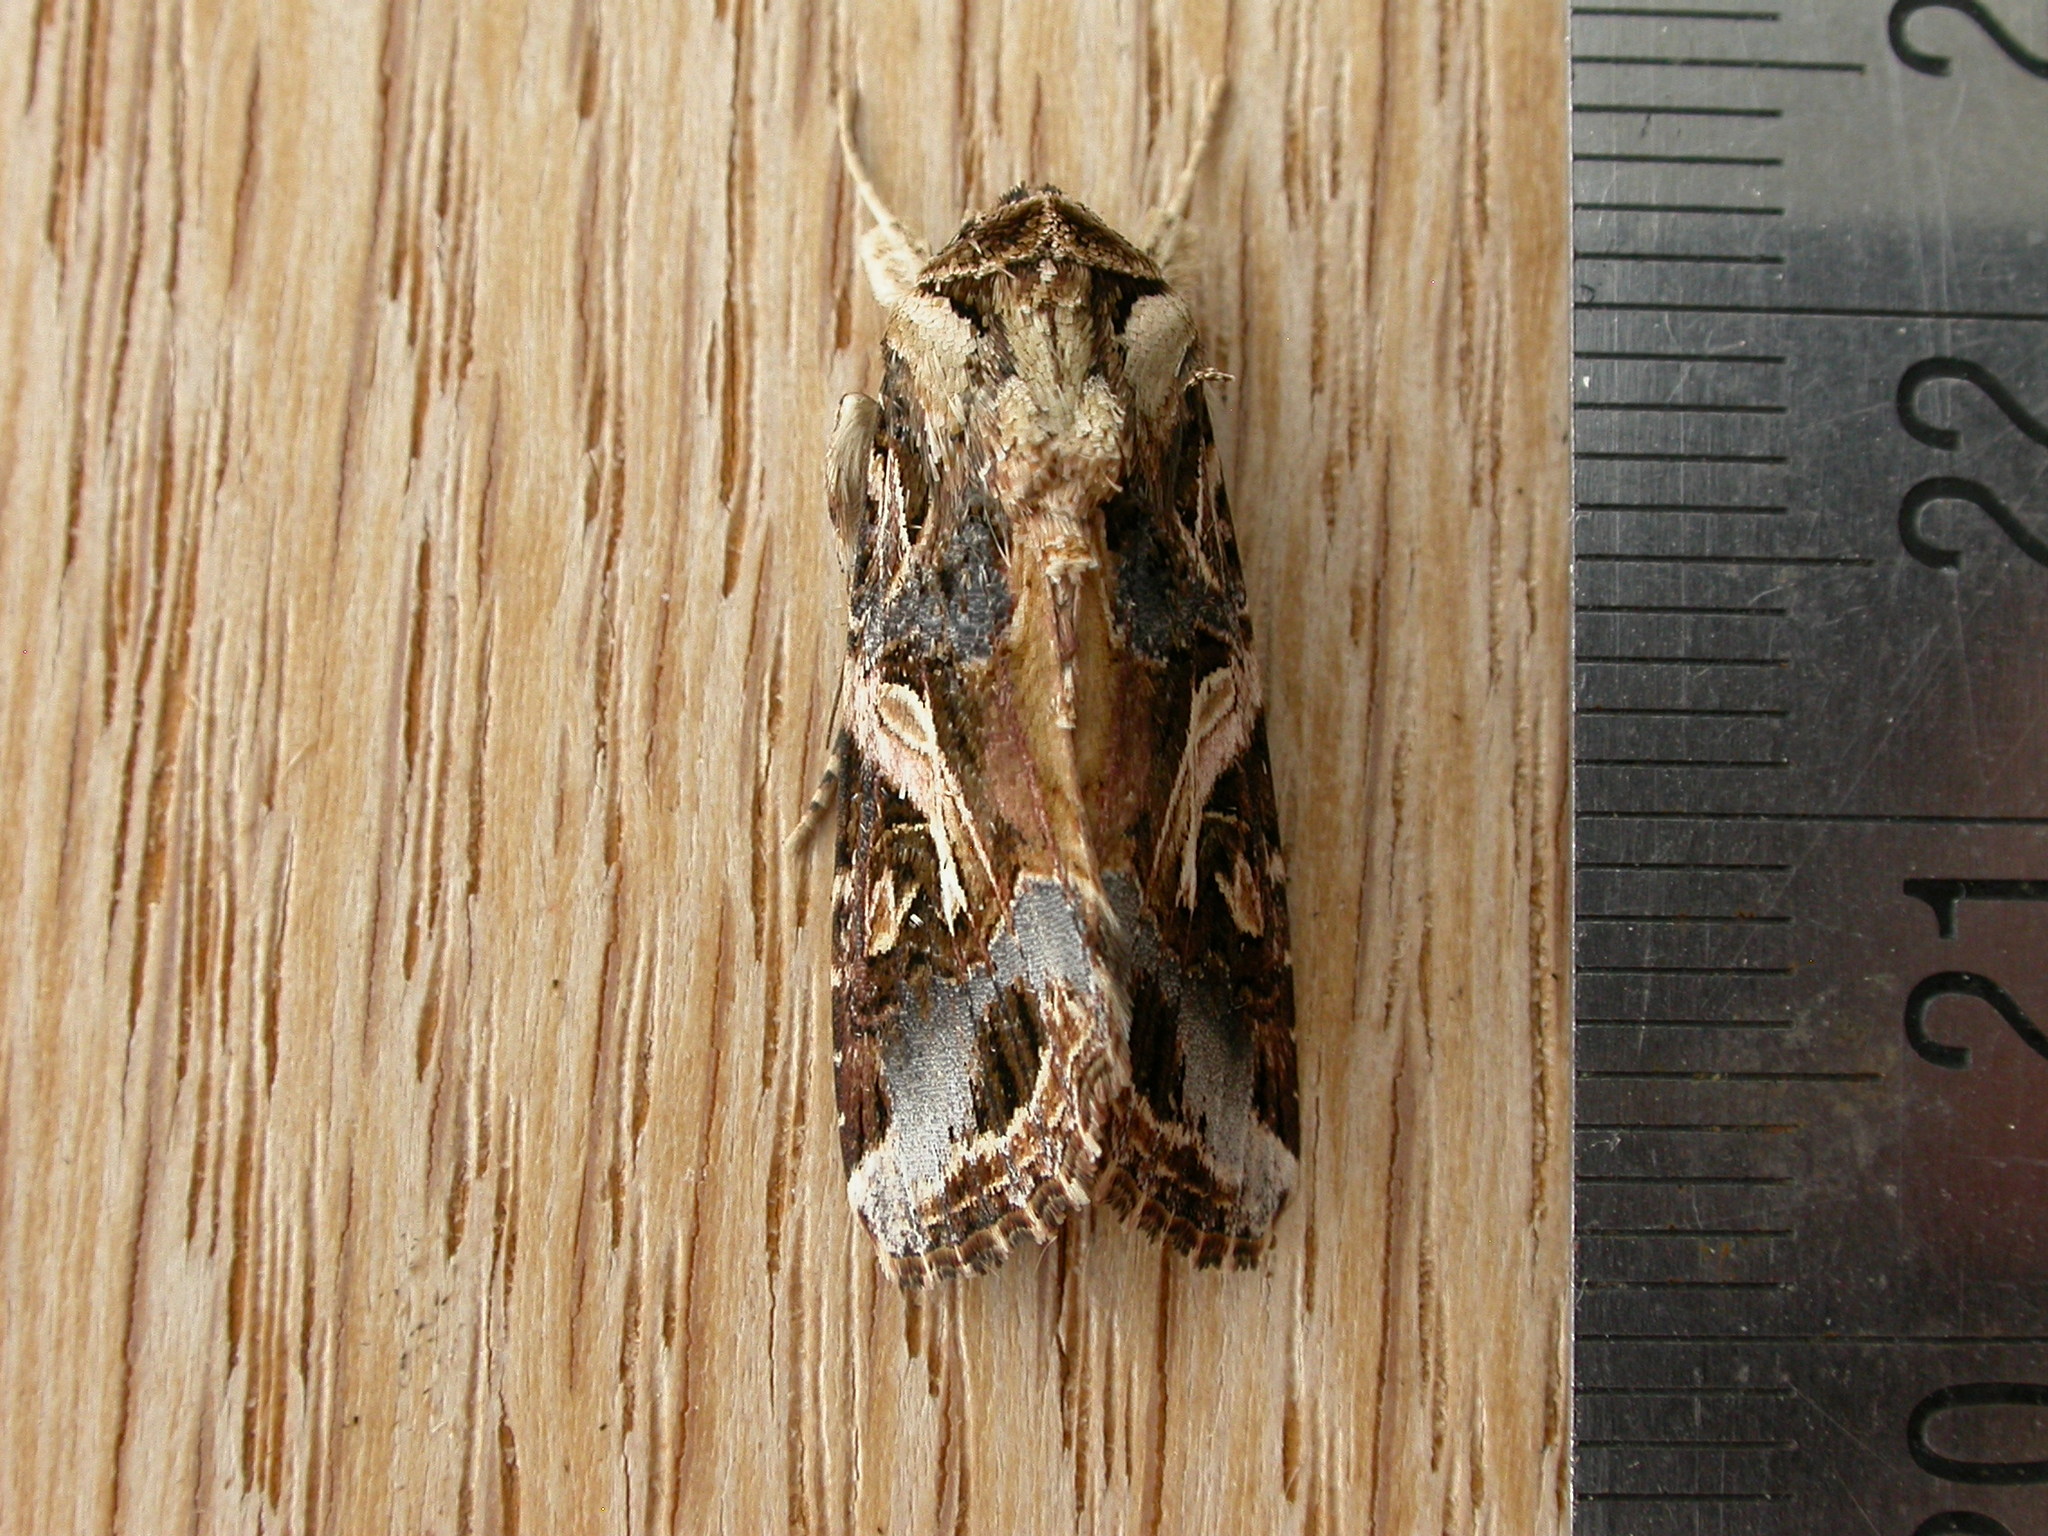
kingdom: Animalia
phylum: Arthropoda
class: Insecta
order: Lepidoptera
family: Noctuidae
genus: Spodoptera
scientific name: Spodoptera litura
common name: Asian cotton leafworm
